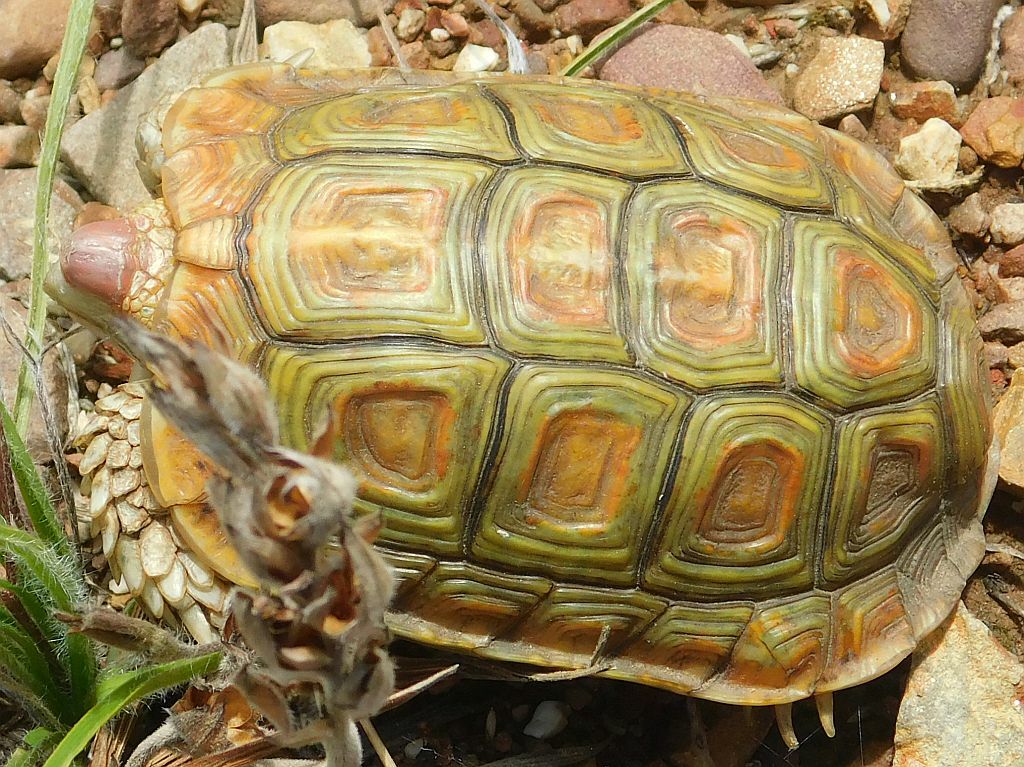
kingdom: Animalia
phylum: Chordata
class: Testudines
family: Testudinidae
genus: Homopus
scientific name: Homopus areolatus
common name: Parrot-beaked tortoise
